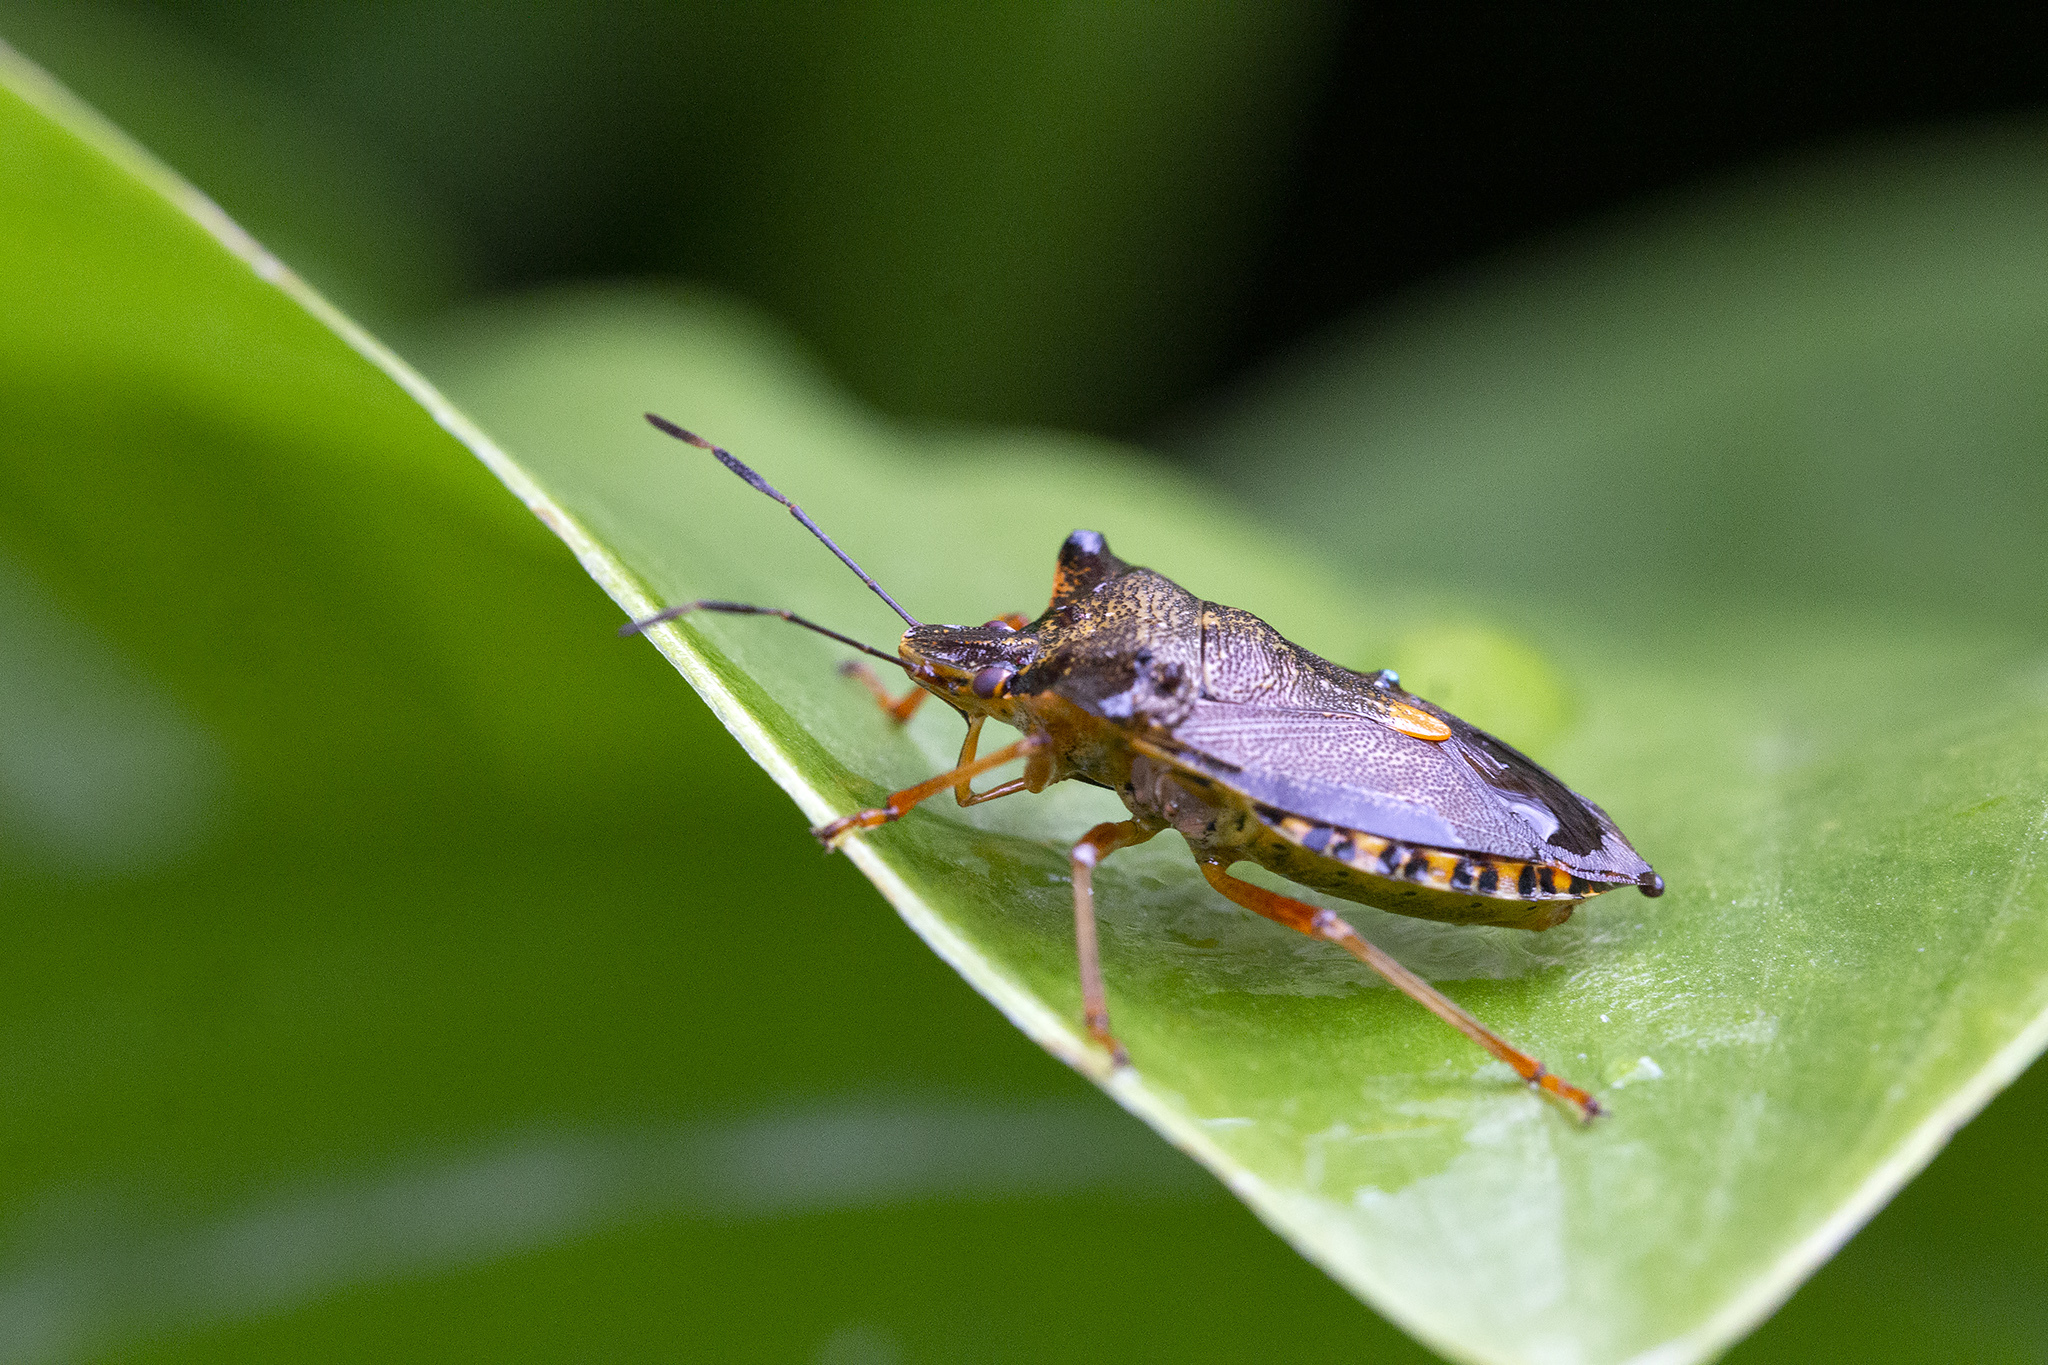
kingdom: Animalia
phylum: Arthropoda
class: Insecta
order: Hemiptera
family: Pentatomidae
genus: Pentatoma
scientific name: Pentatoma rufipes
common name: Forest bug
